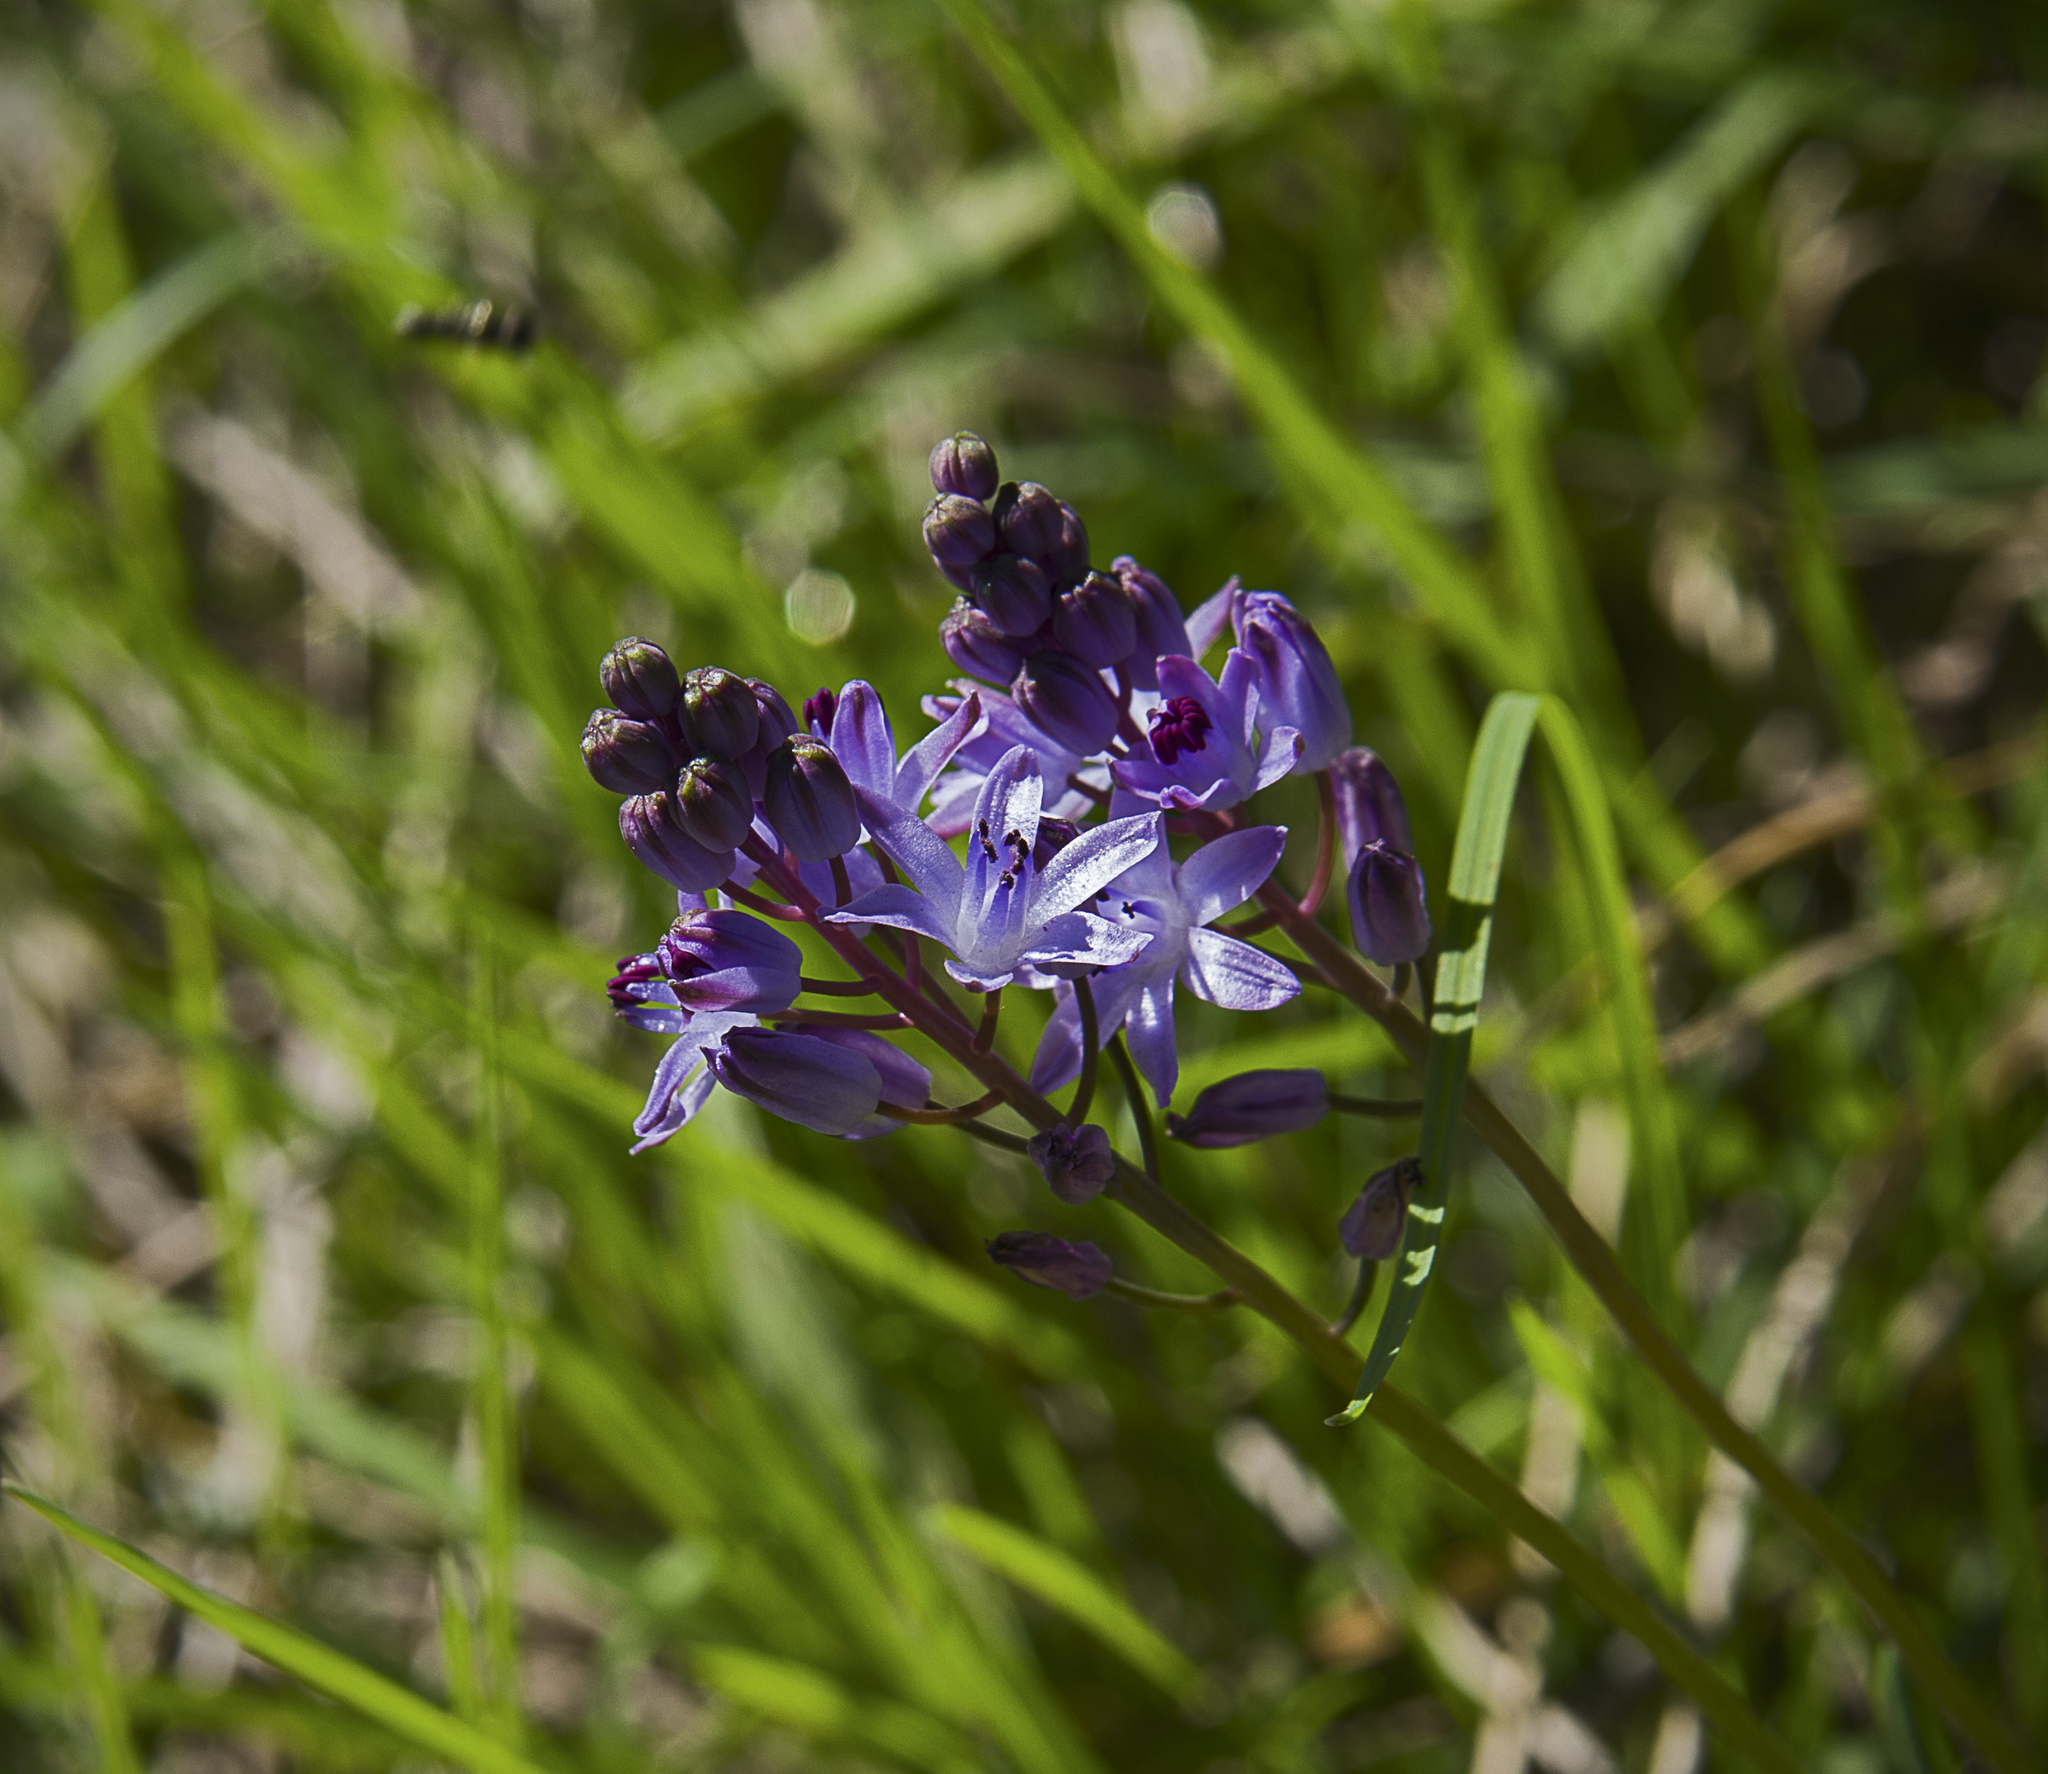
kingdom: Plantae
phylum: Tracheophyta
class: Liliopsida
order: Asparagales
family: Asparagaceae
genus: Prospero
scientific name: Prospero autumnale
